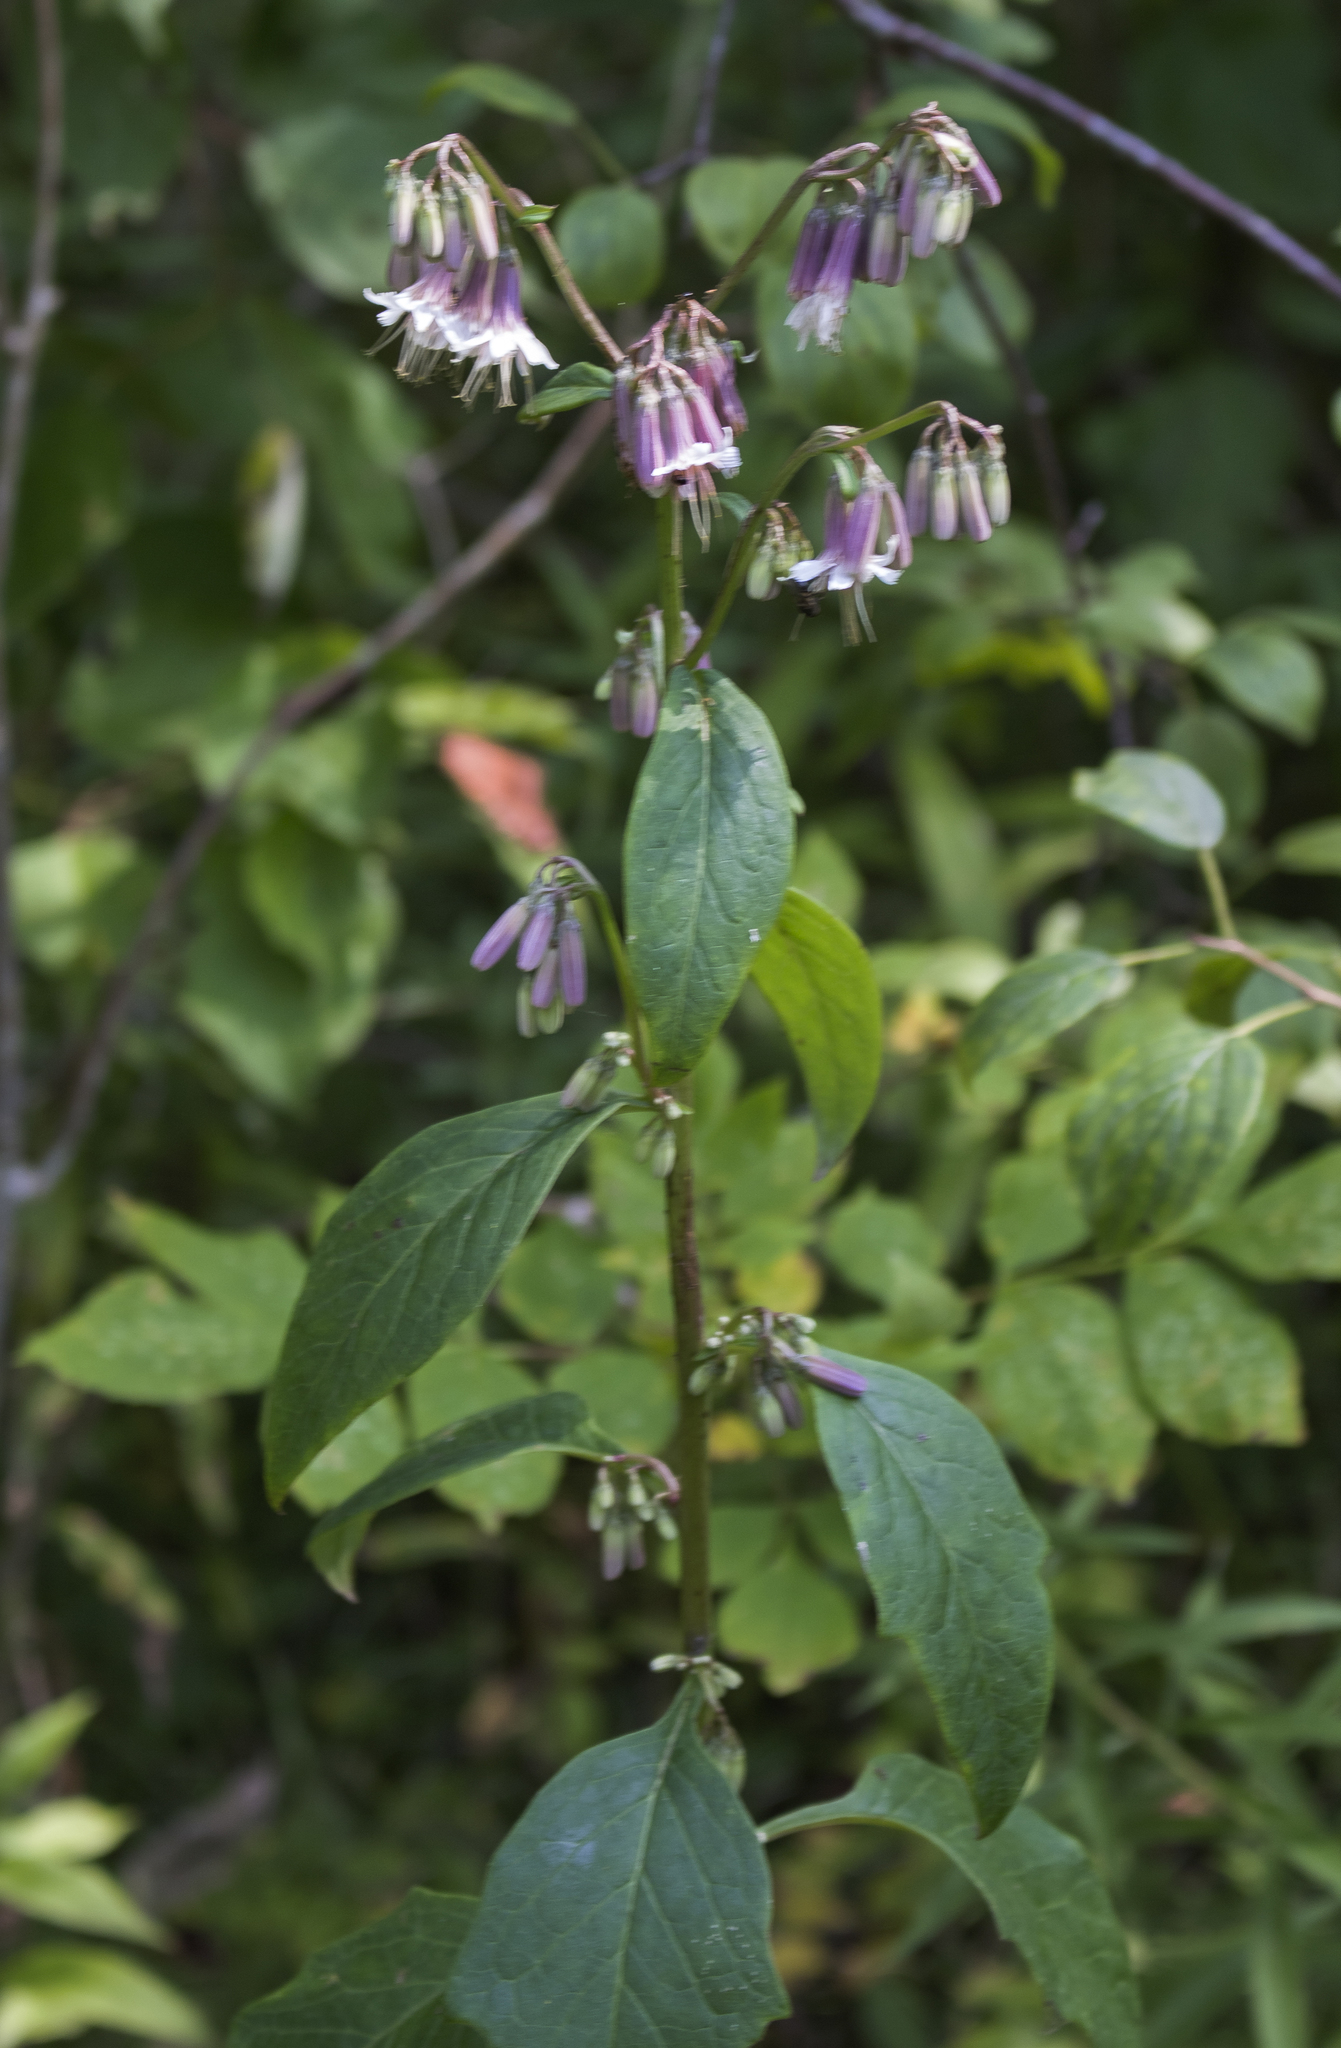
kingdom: Plantae
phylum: Tracheophyta
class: Magnoliopsida
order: Asterales
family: Asteraceae
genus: Nabalus
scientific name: Nabalus albus
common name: White rattlesnakeroot
